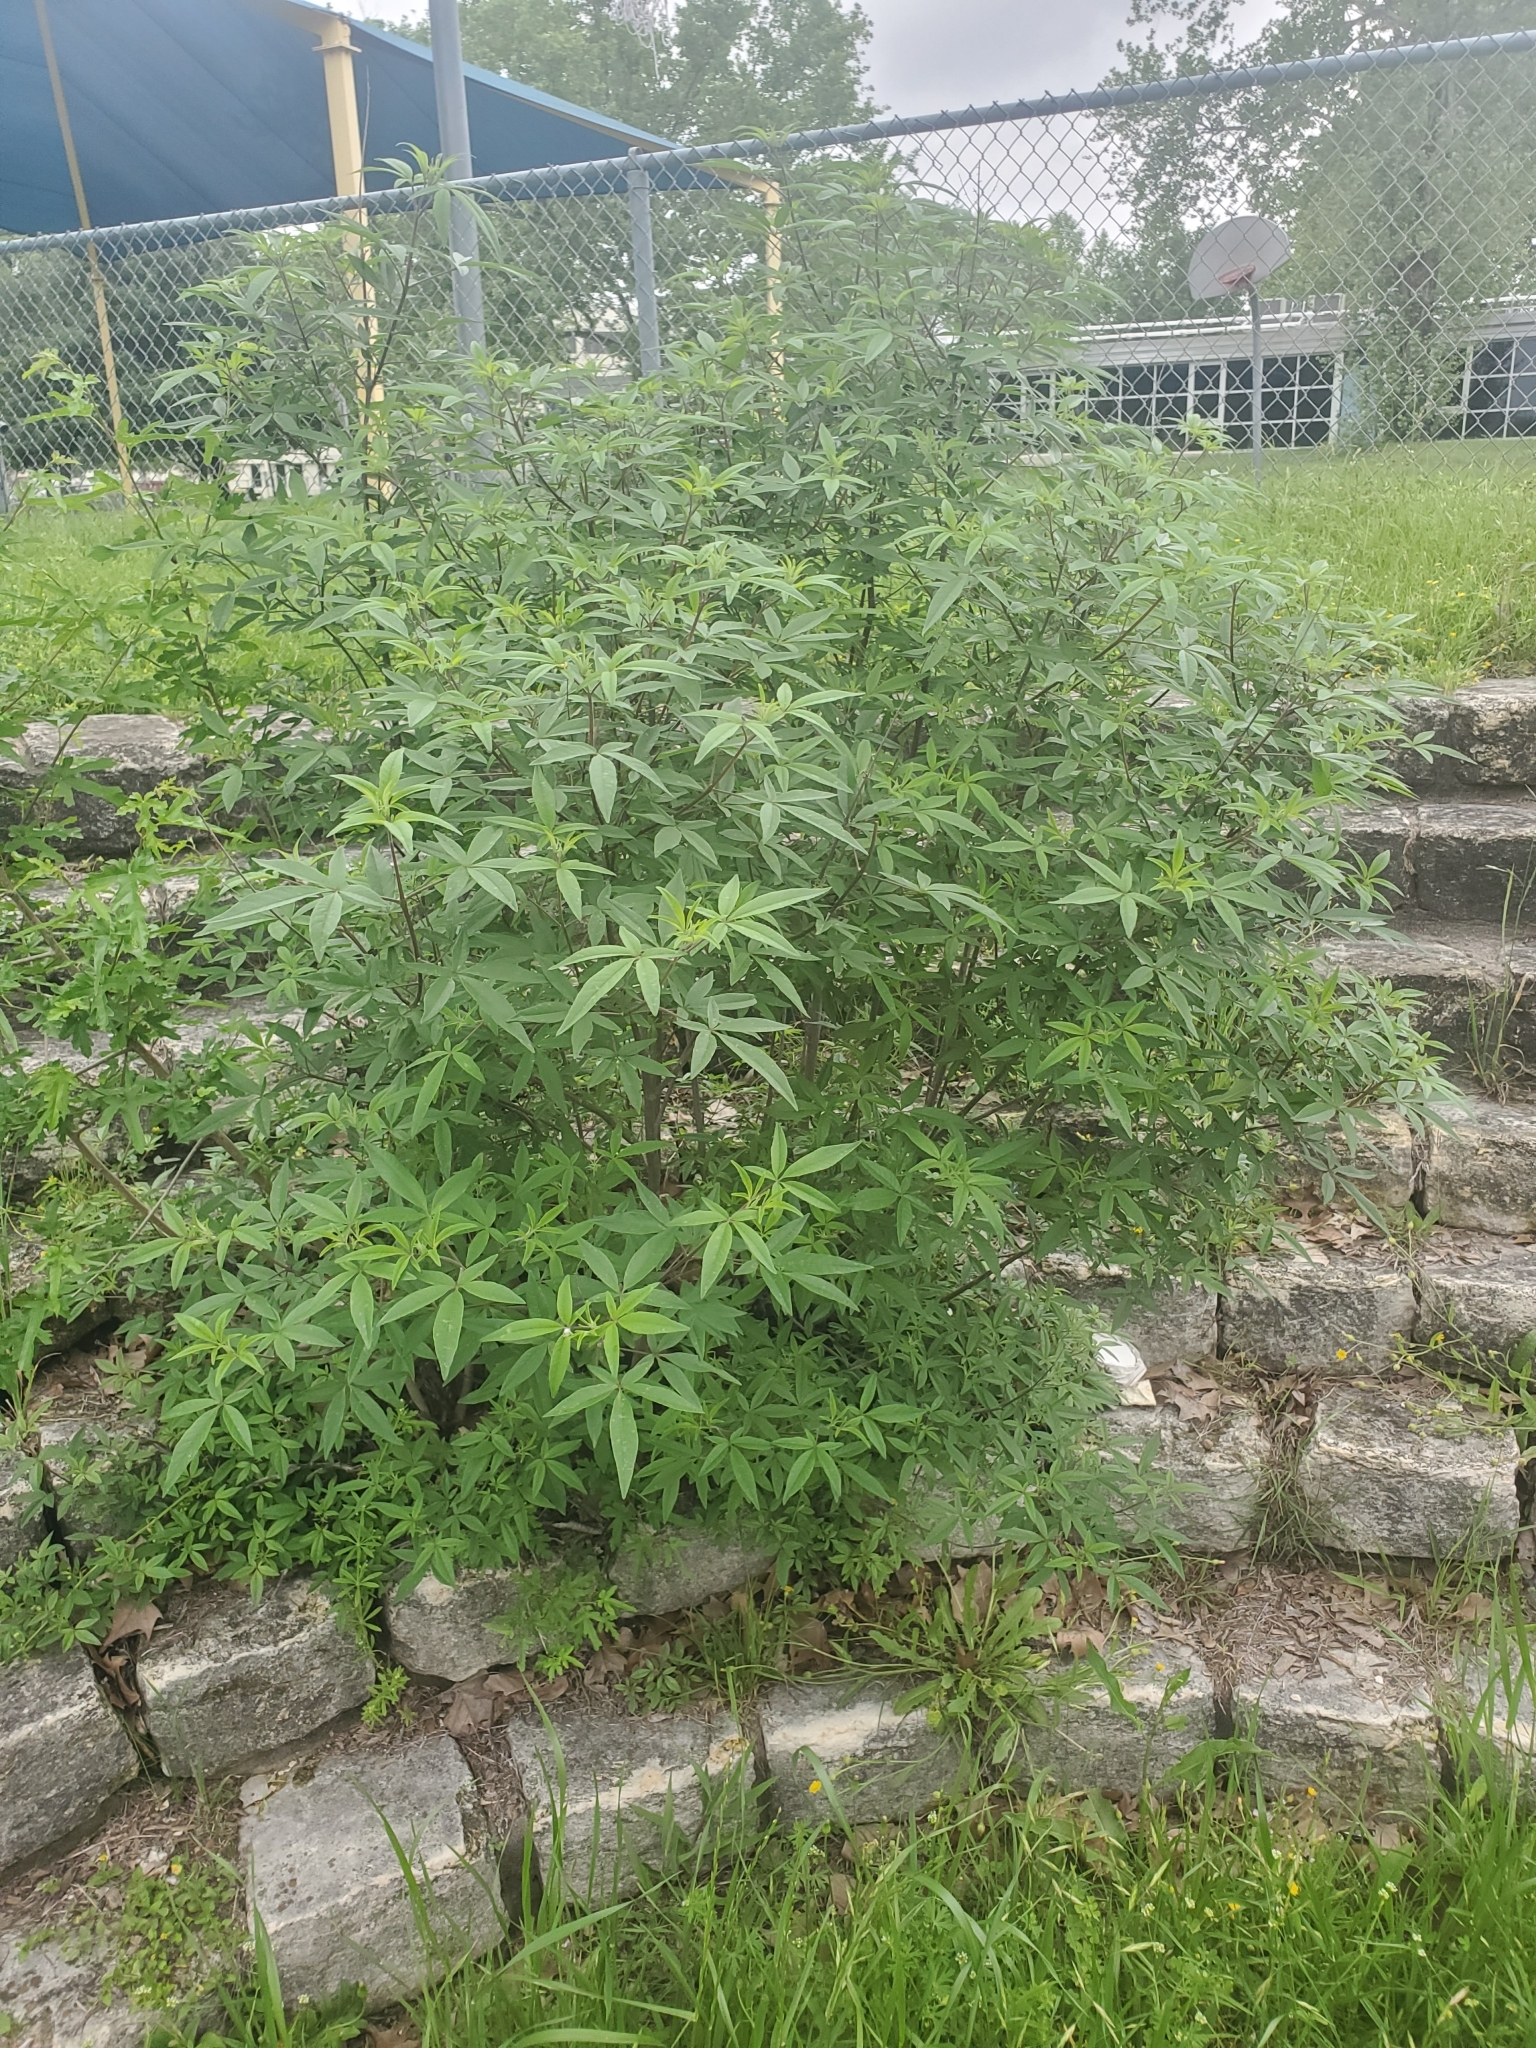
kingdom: Plantae
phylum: Tracheophyta
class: Magnoliopsida
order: Lamiales
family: Lamiaceae
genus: Vitex
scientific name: Vitex agnus-castus
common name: Chasteberry
